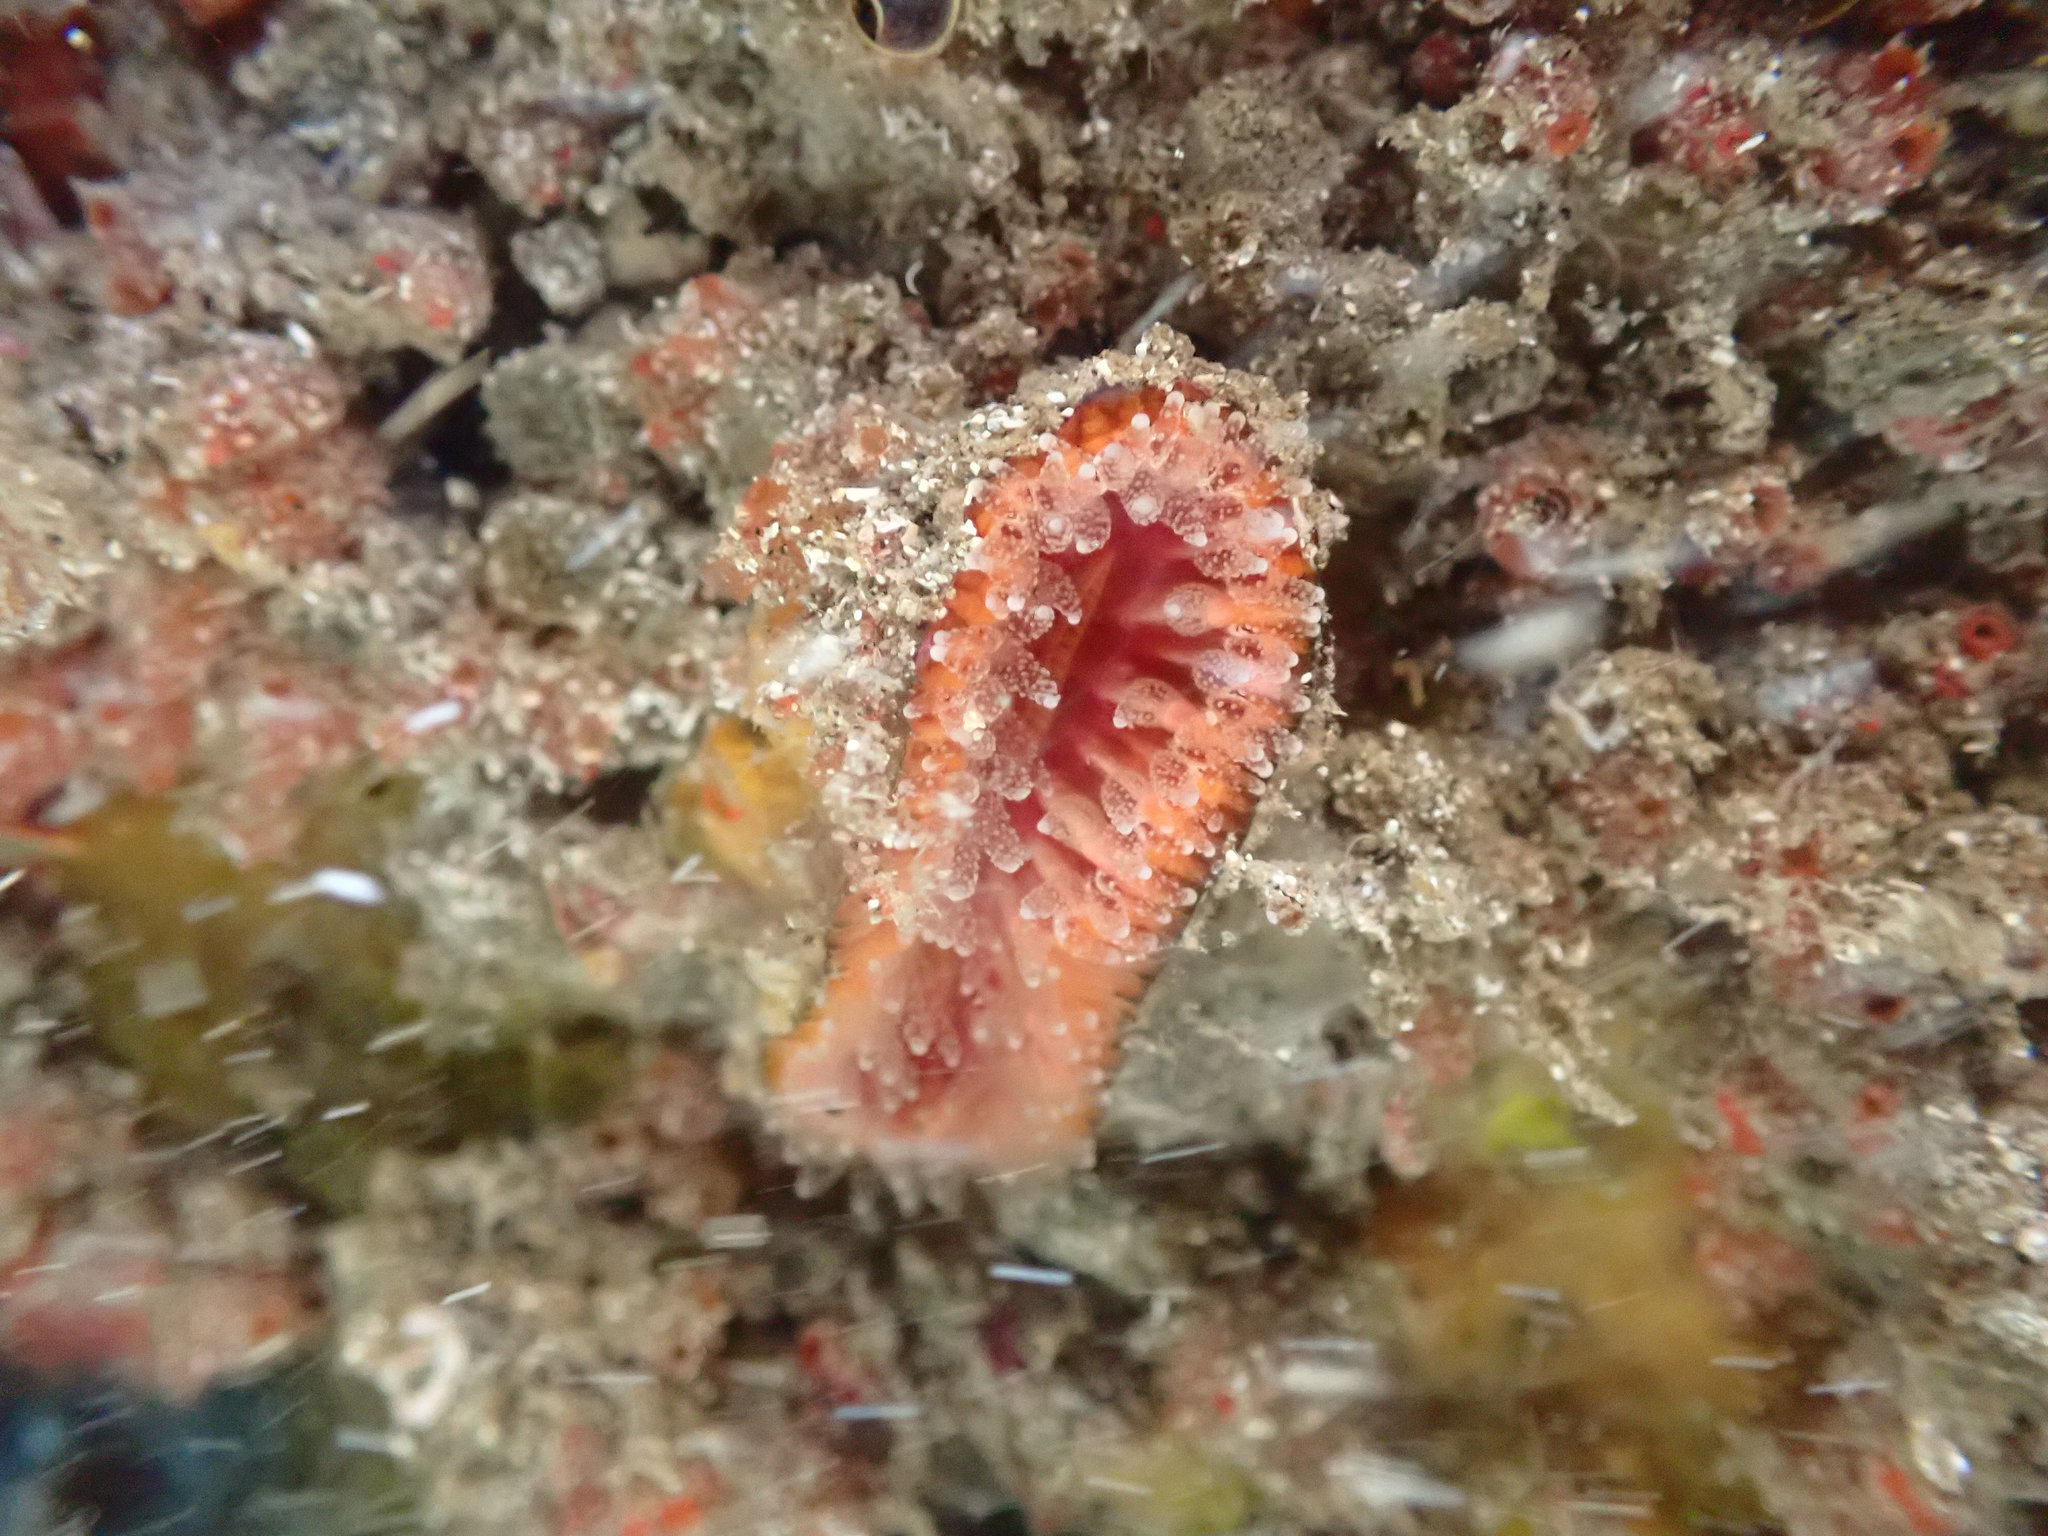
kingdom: Animalia
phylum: Cnidaria
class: Anthozoa
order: Scleractinia
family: Flabellidae
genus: Monomyces
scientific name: Monomyces rubrum
